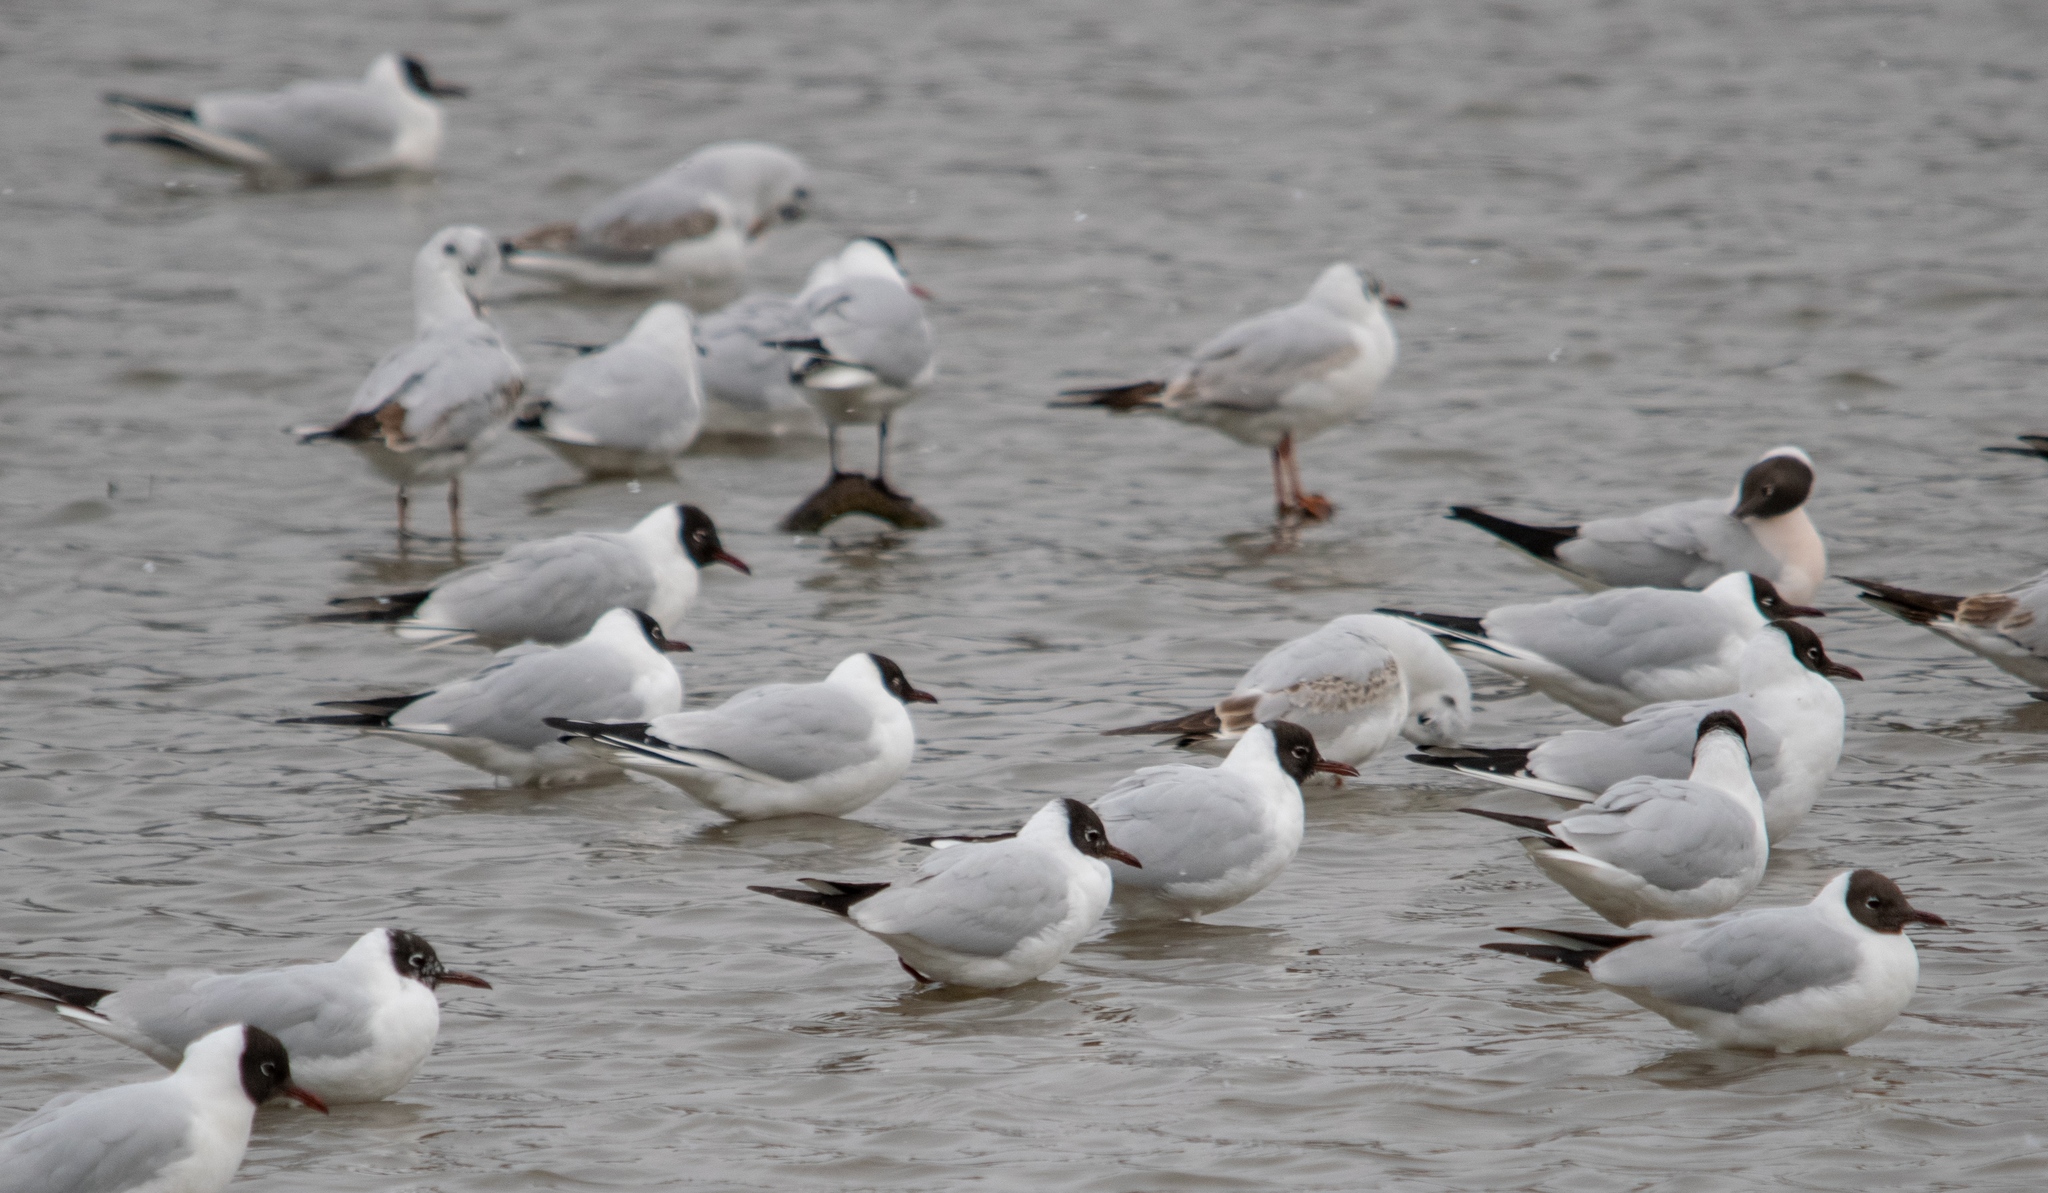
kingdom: Animalia
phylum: Chordata
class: Aves
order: Charadriiformes
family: Laridae
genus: Chroicocephalus
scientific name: Chroicocephalus ridibundus
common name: Black-headed gull
